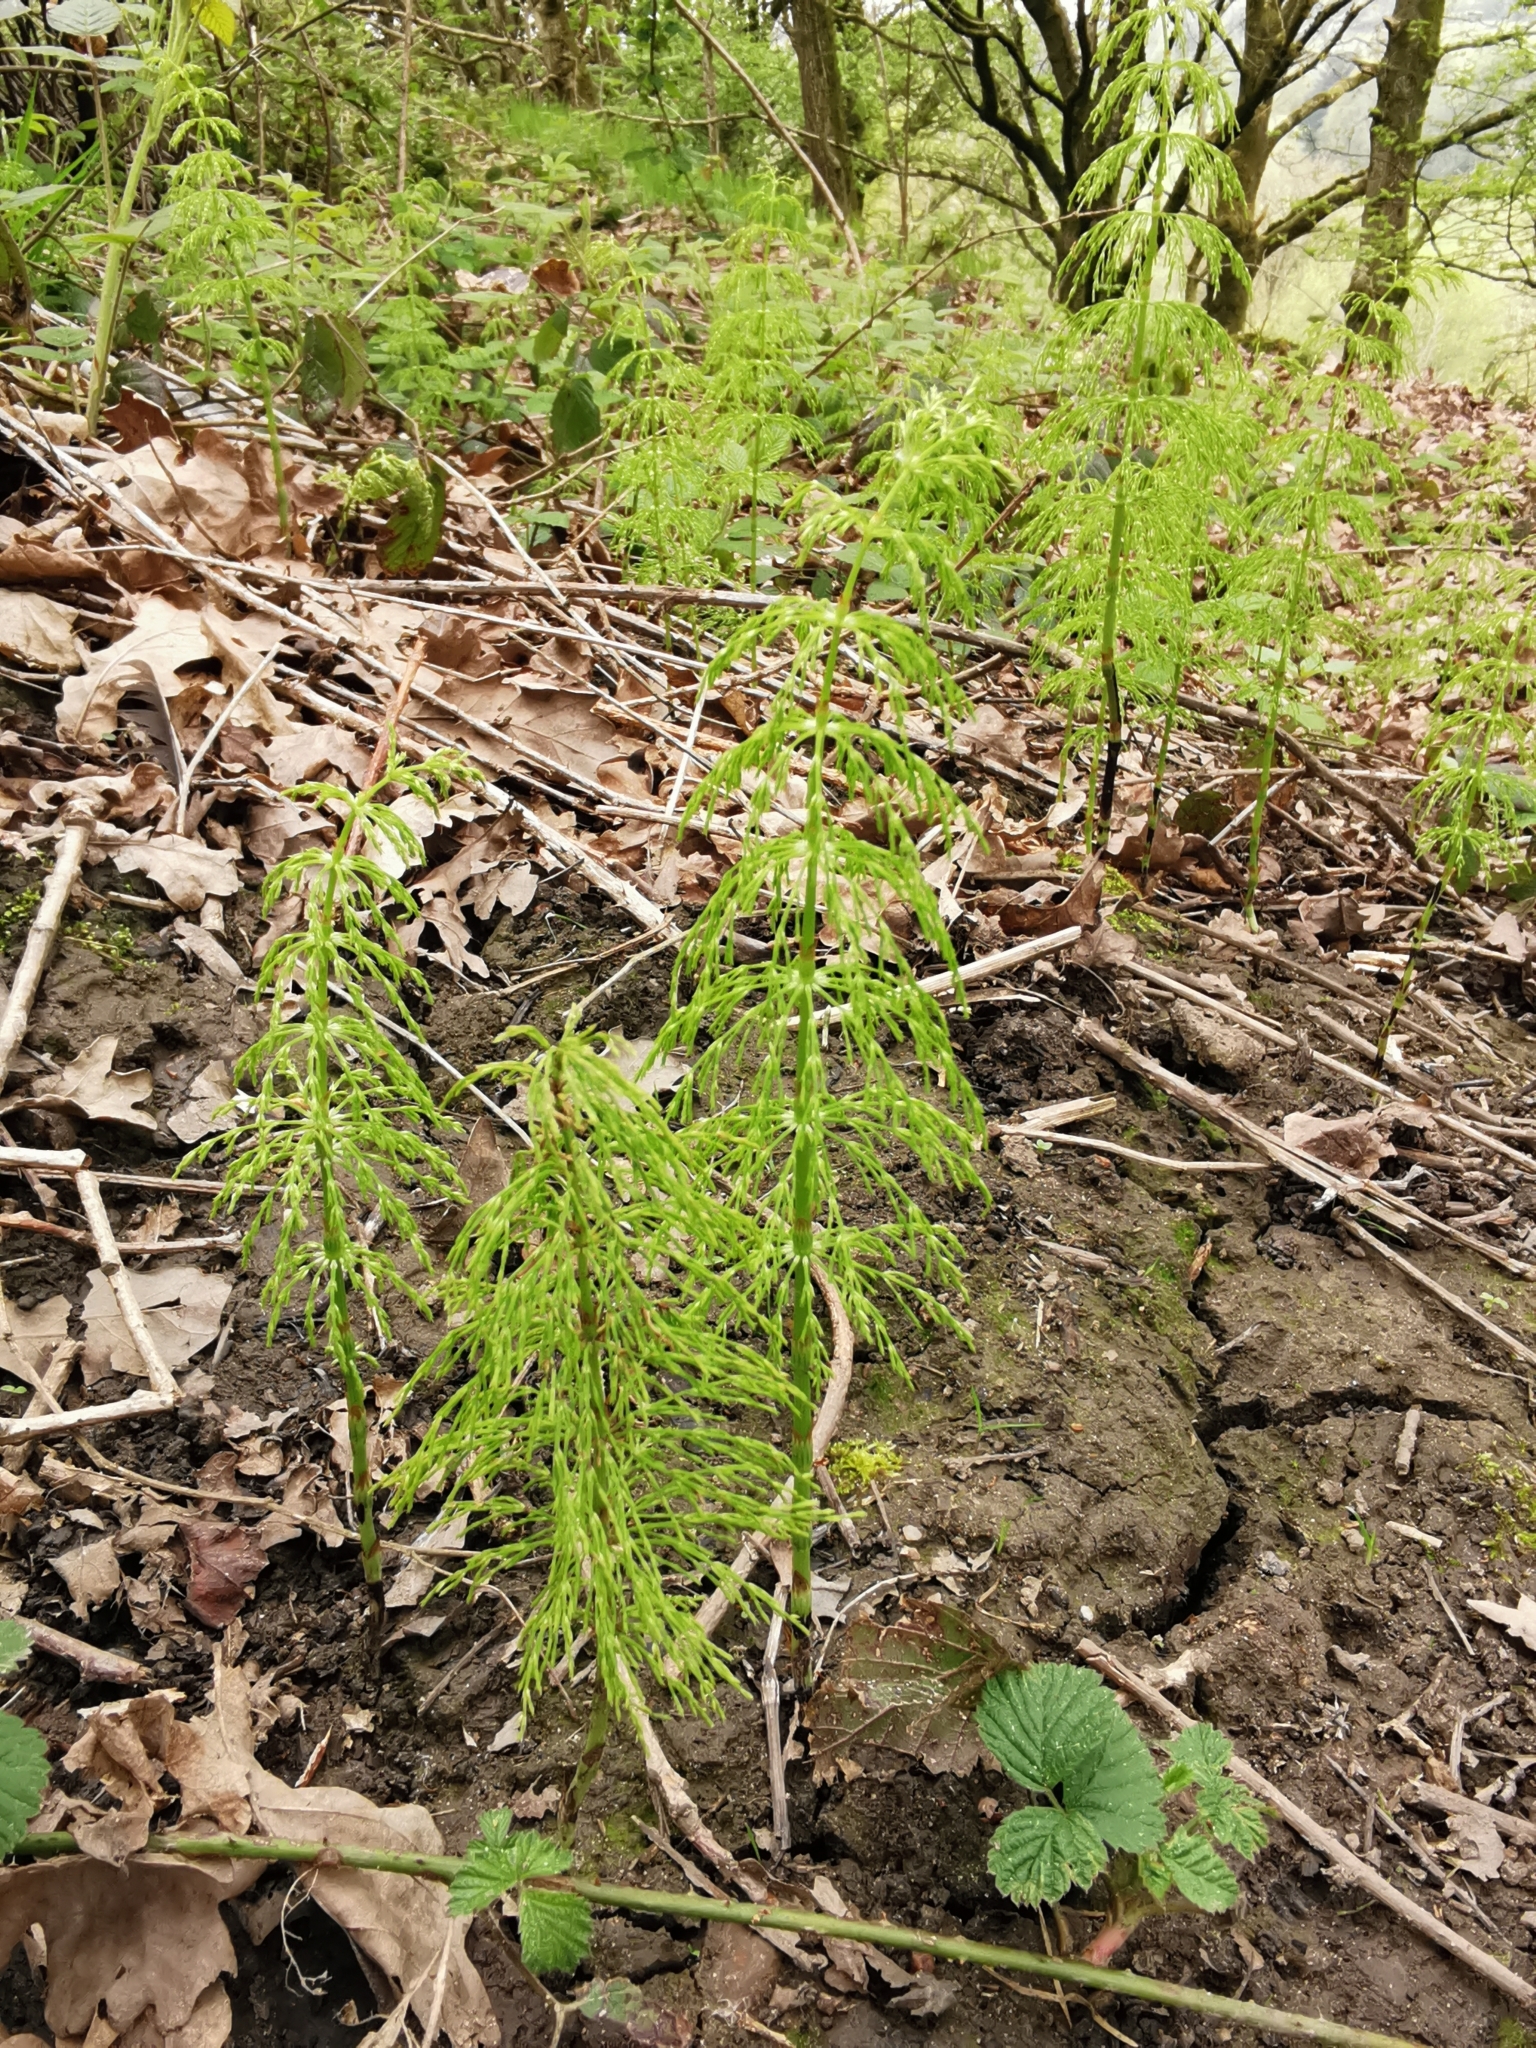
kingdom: Plantae
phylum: Tracheophyta
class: Polypodiopsida
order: Equisetales
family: Equisetaceae
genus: Equisetum
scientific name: Equisetum sylvaticum
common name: Wood horsetail
